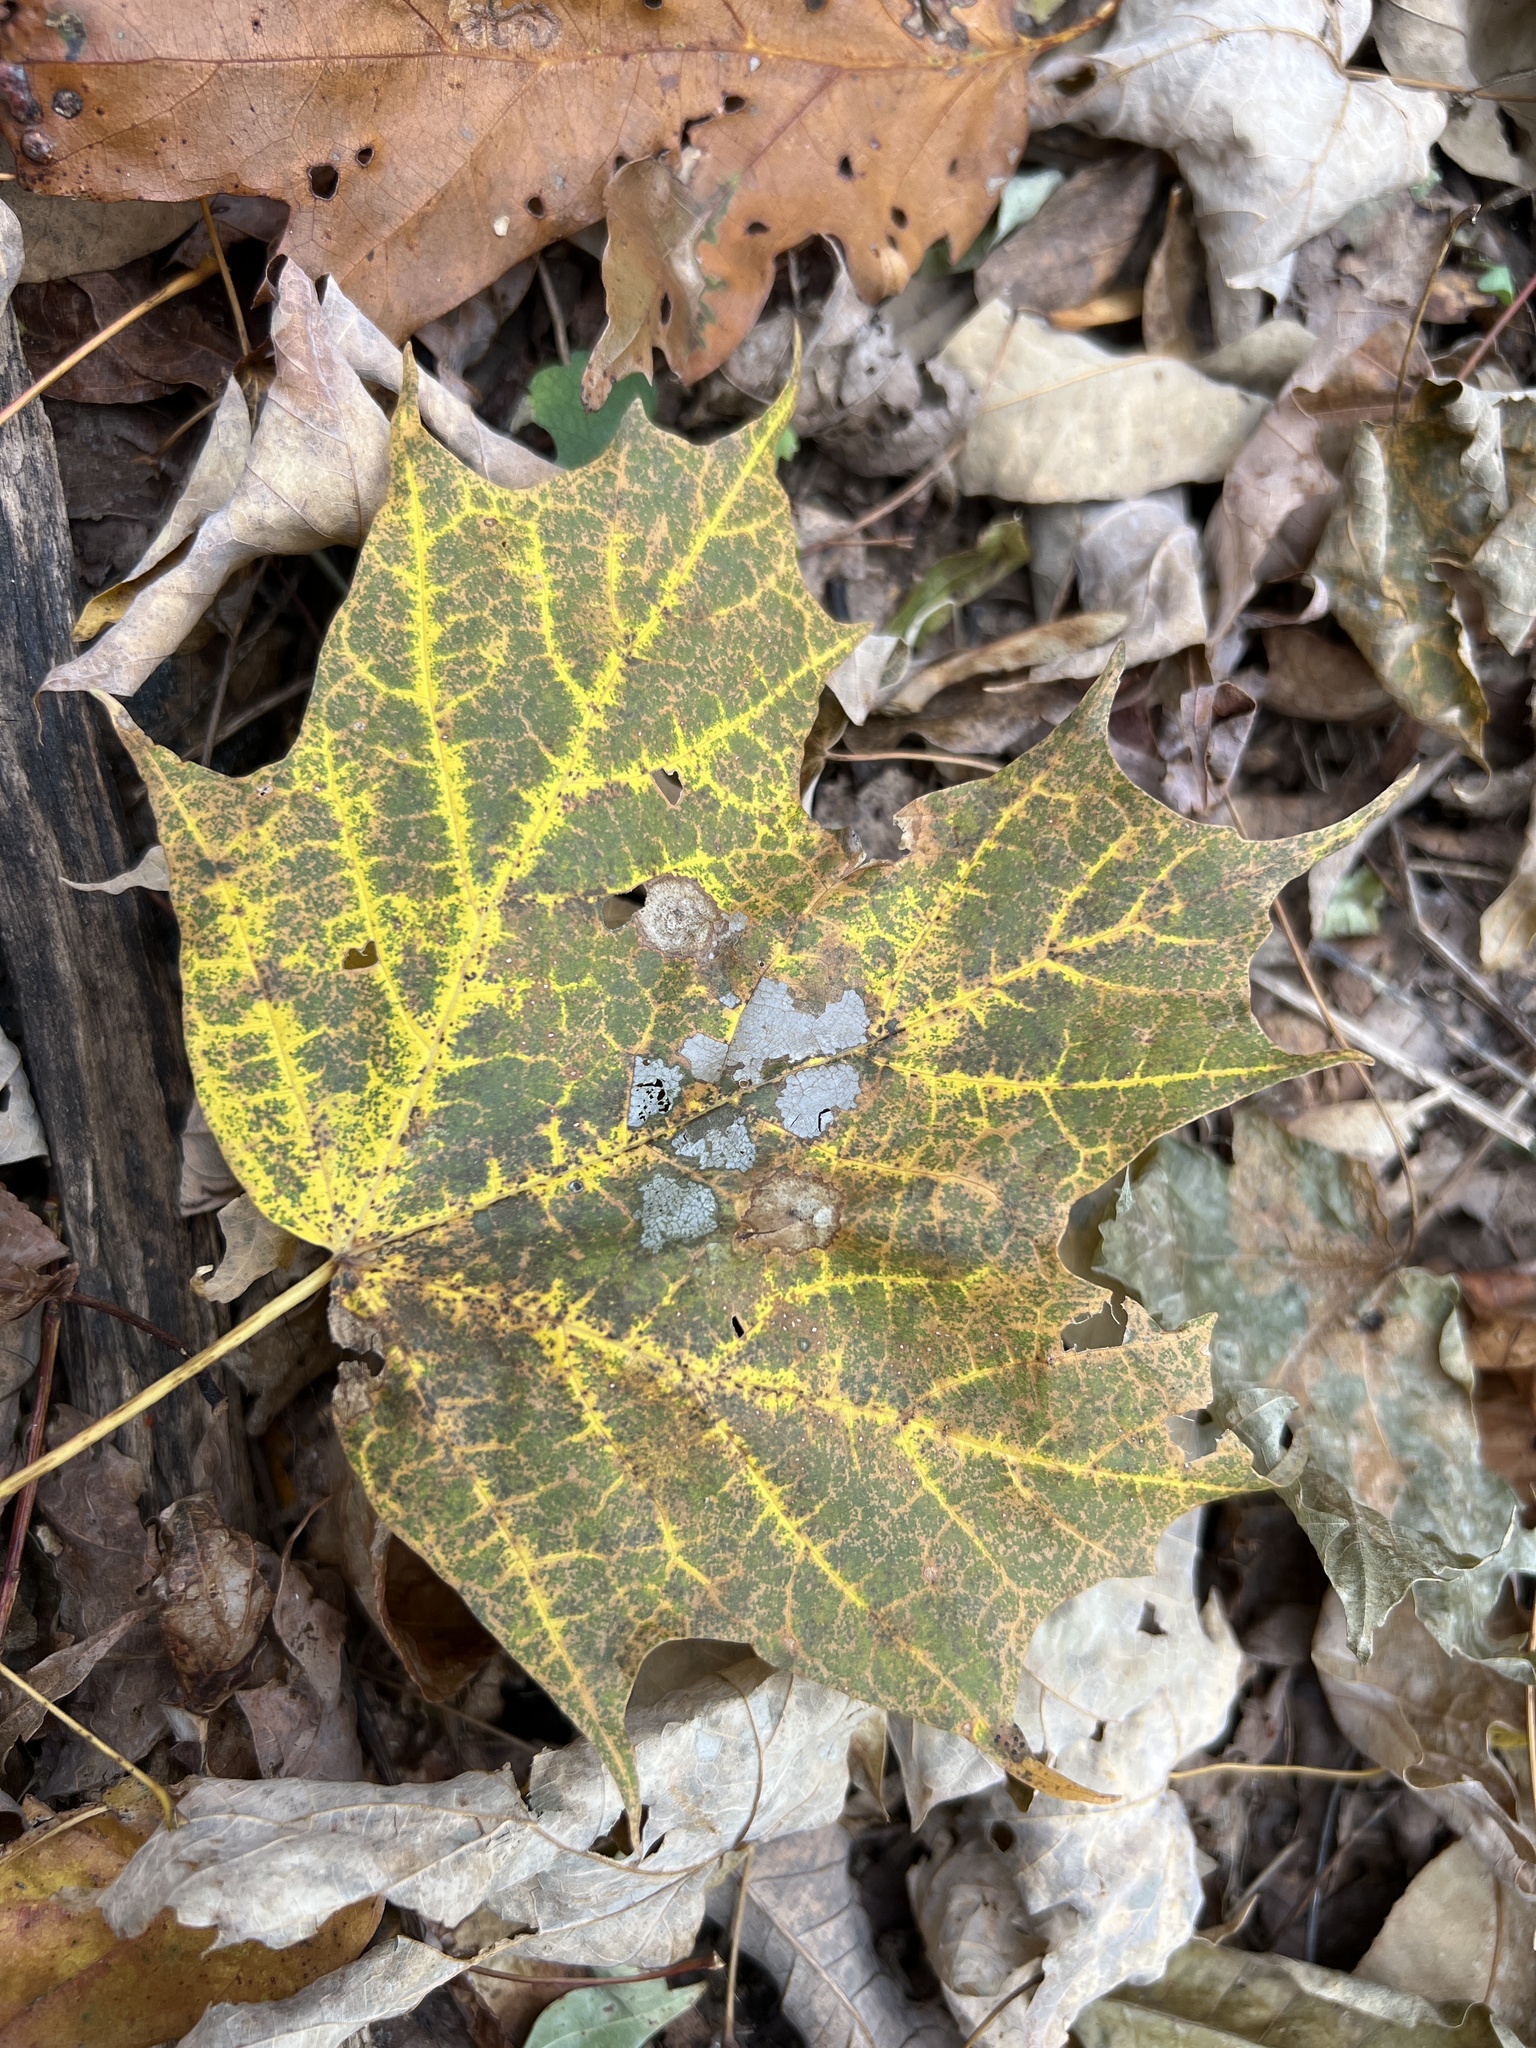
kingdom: Plantae
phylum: Tracheophyta
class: Magnoliopsida
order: Sapindales
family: Sapindaceae
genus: Acer
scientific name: Acer saccharum
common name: Sugar maple
